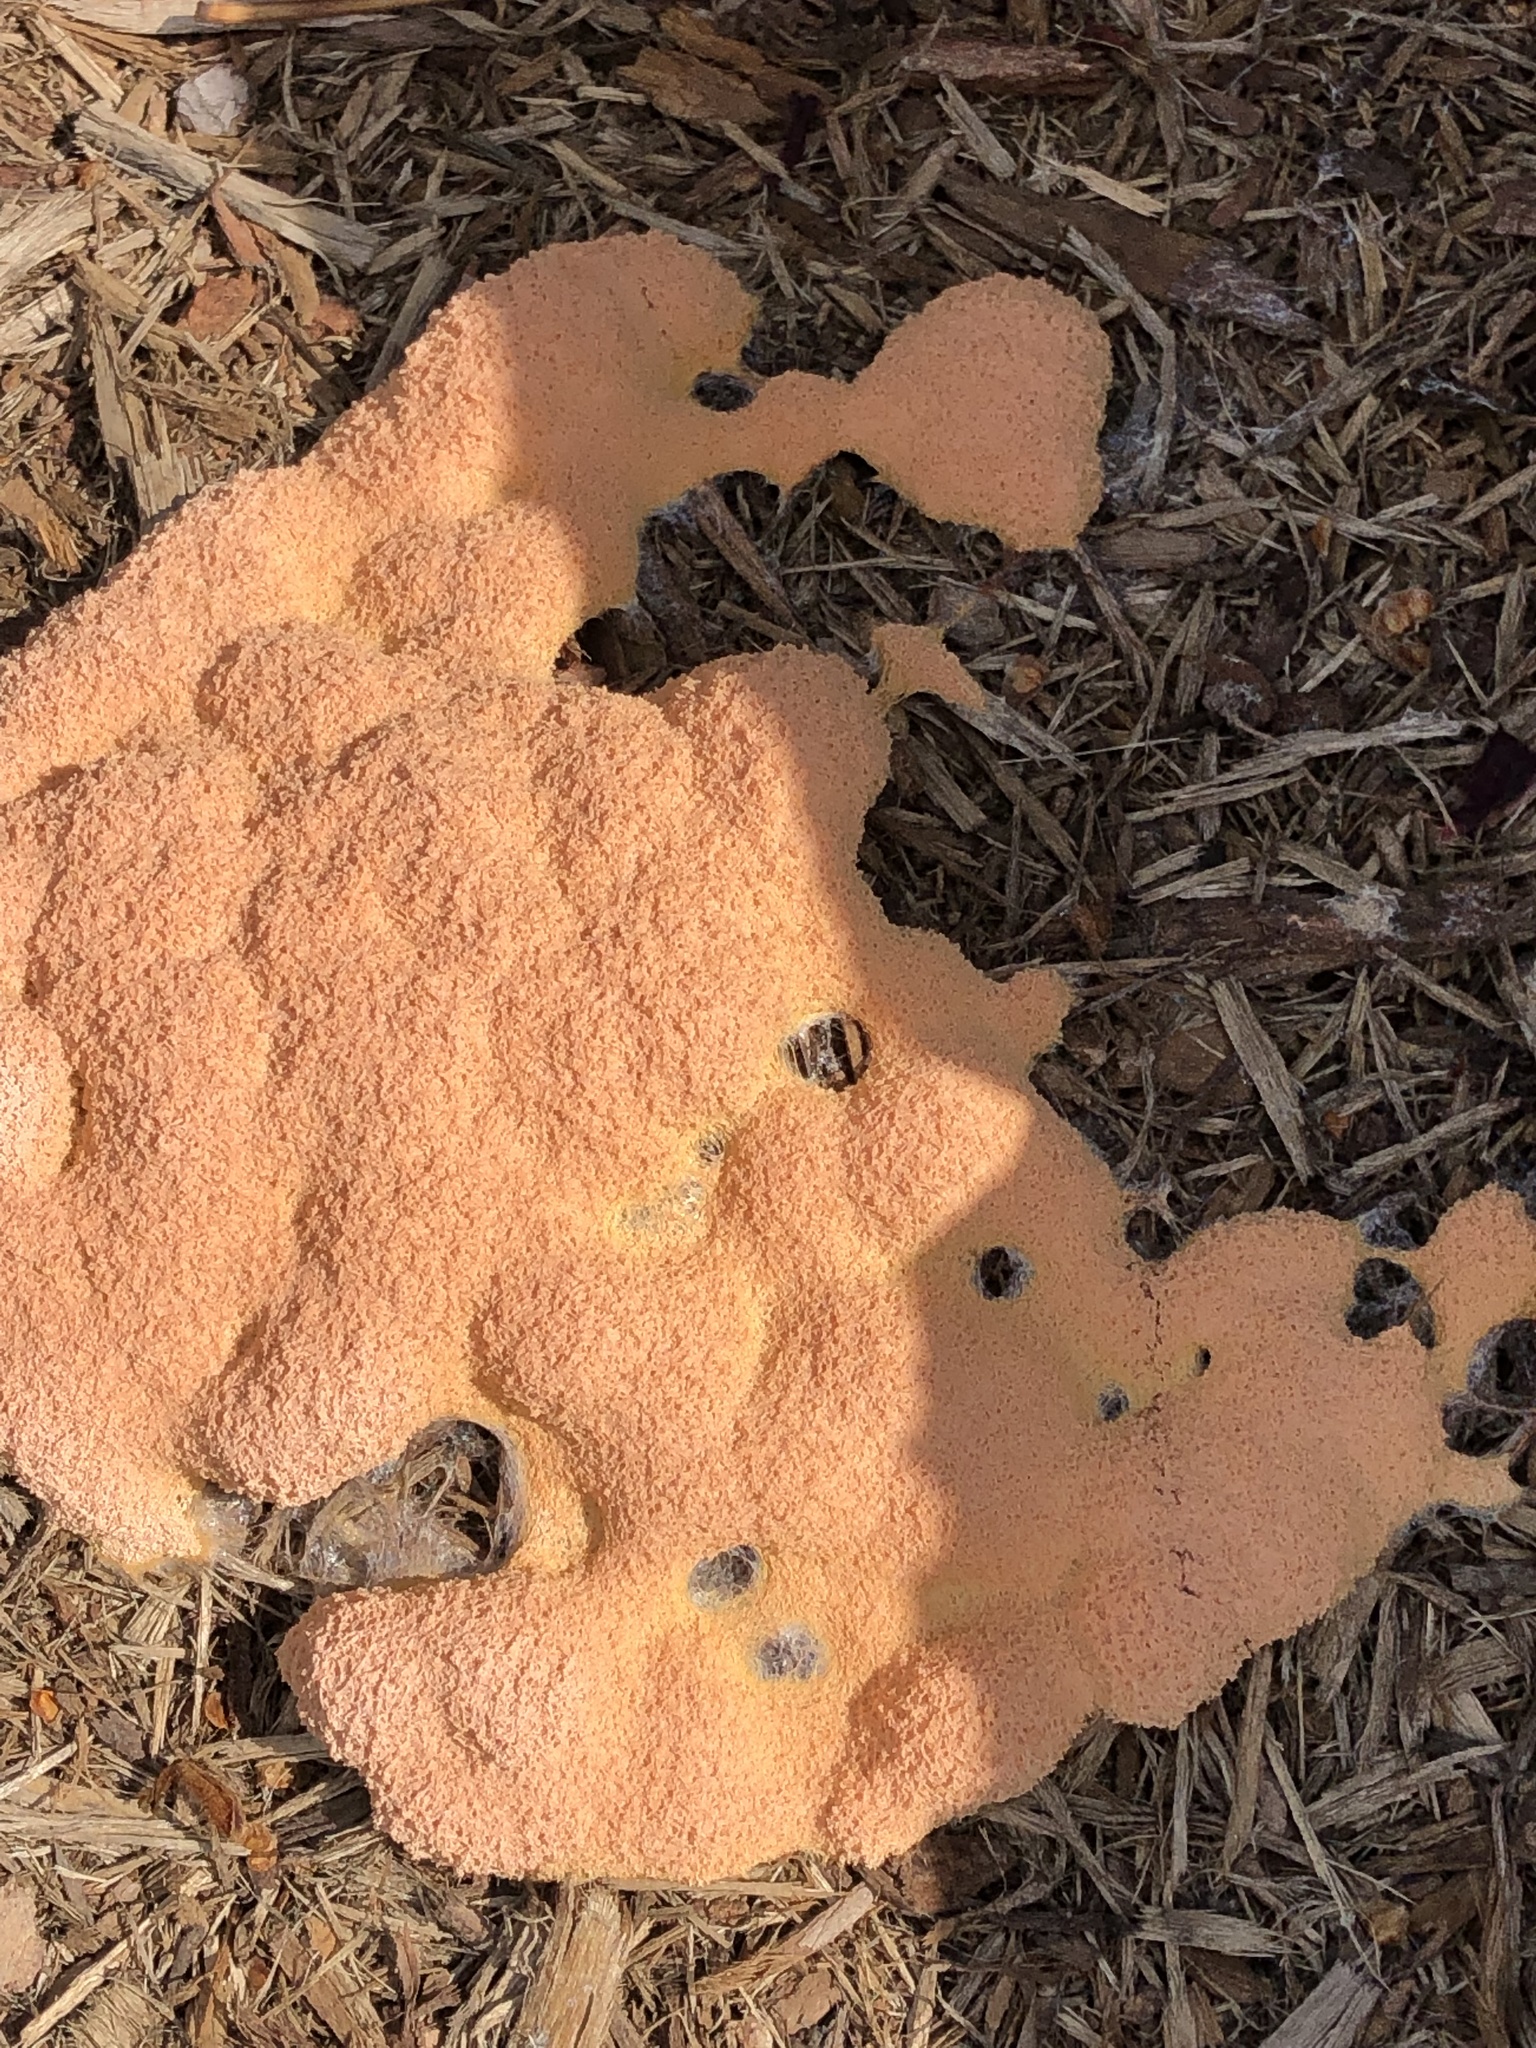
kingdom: Protozoa
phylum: Mycetozoa
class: Myxomycetes
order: Physarales
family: Physaraceae
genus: Fuligo
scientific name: Fuligo septica
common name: Dog vomit slime mold
